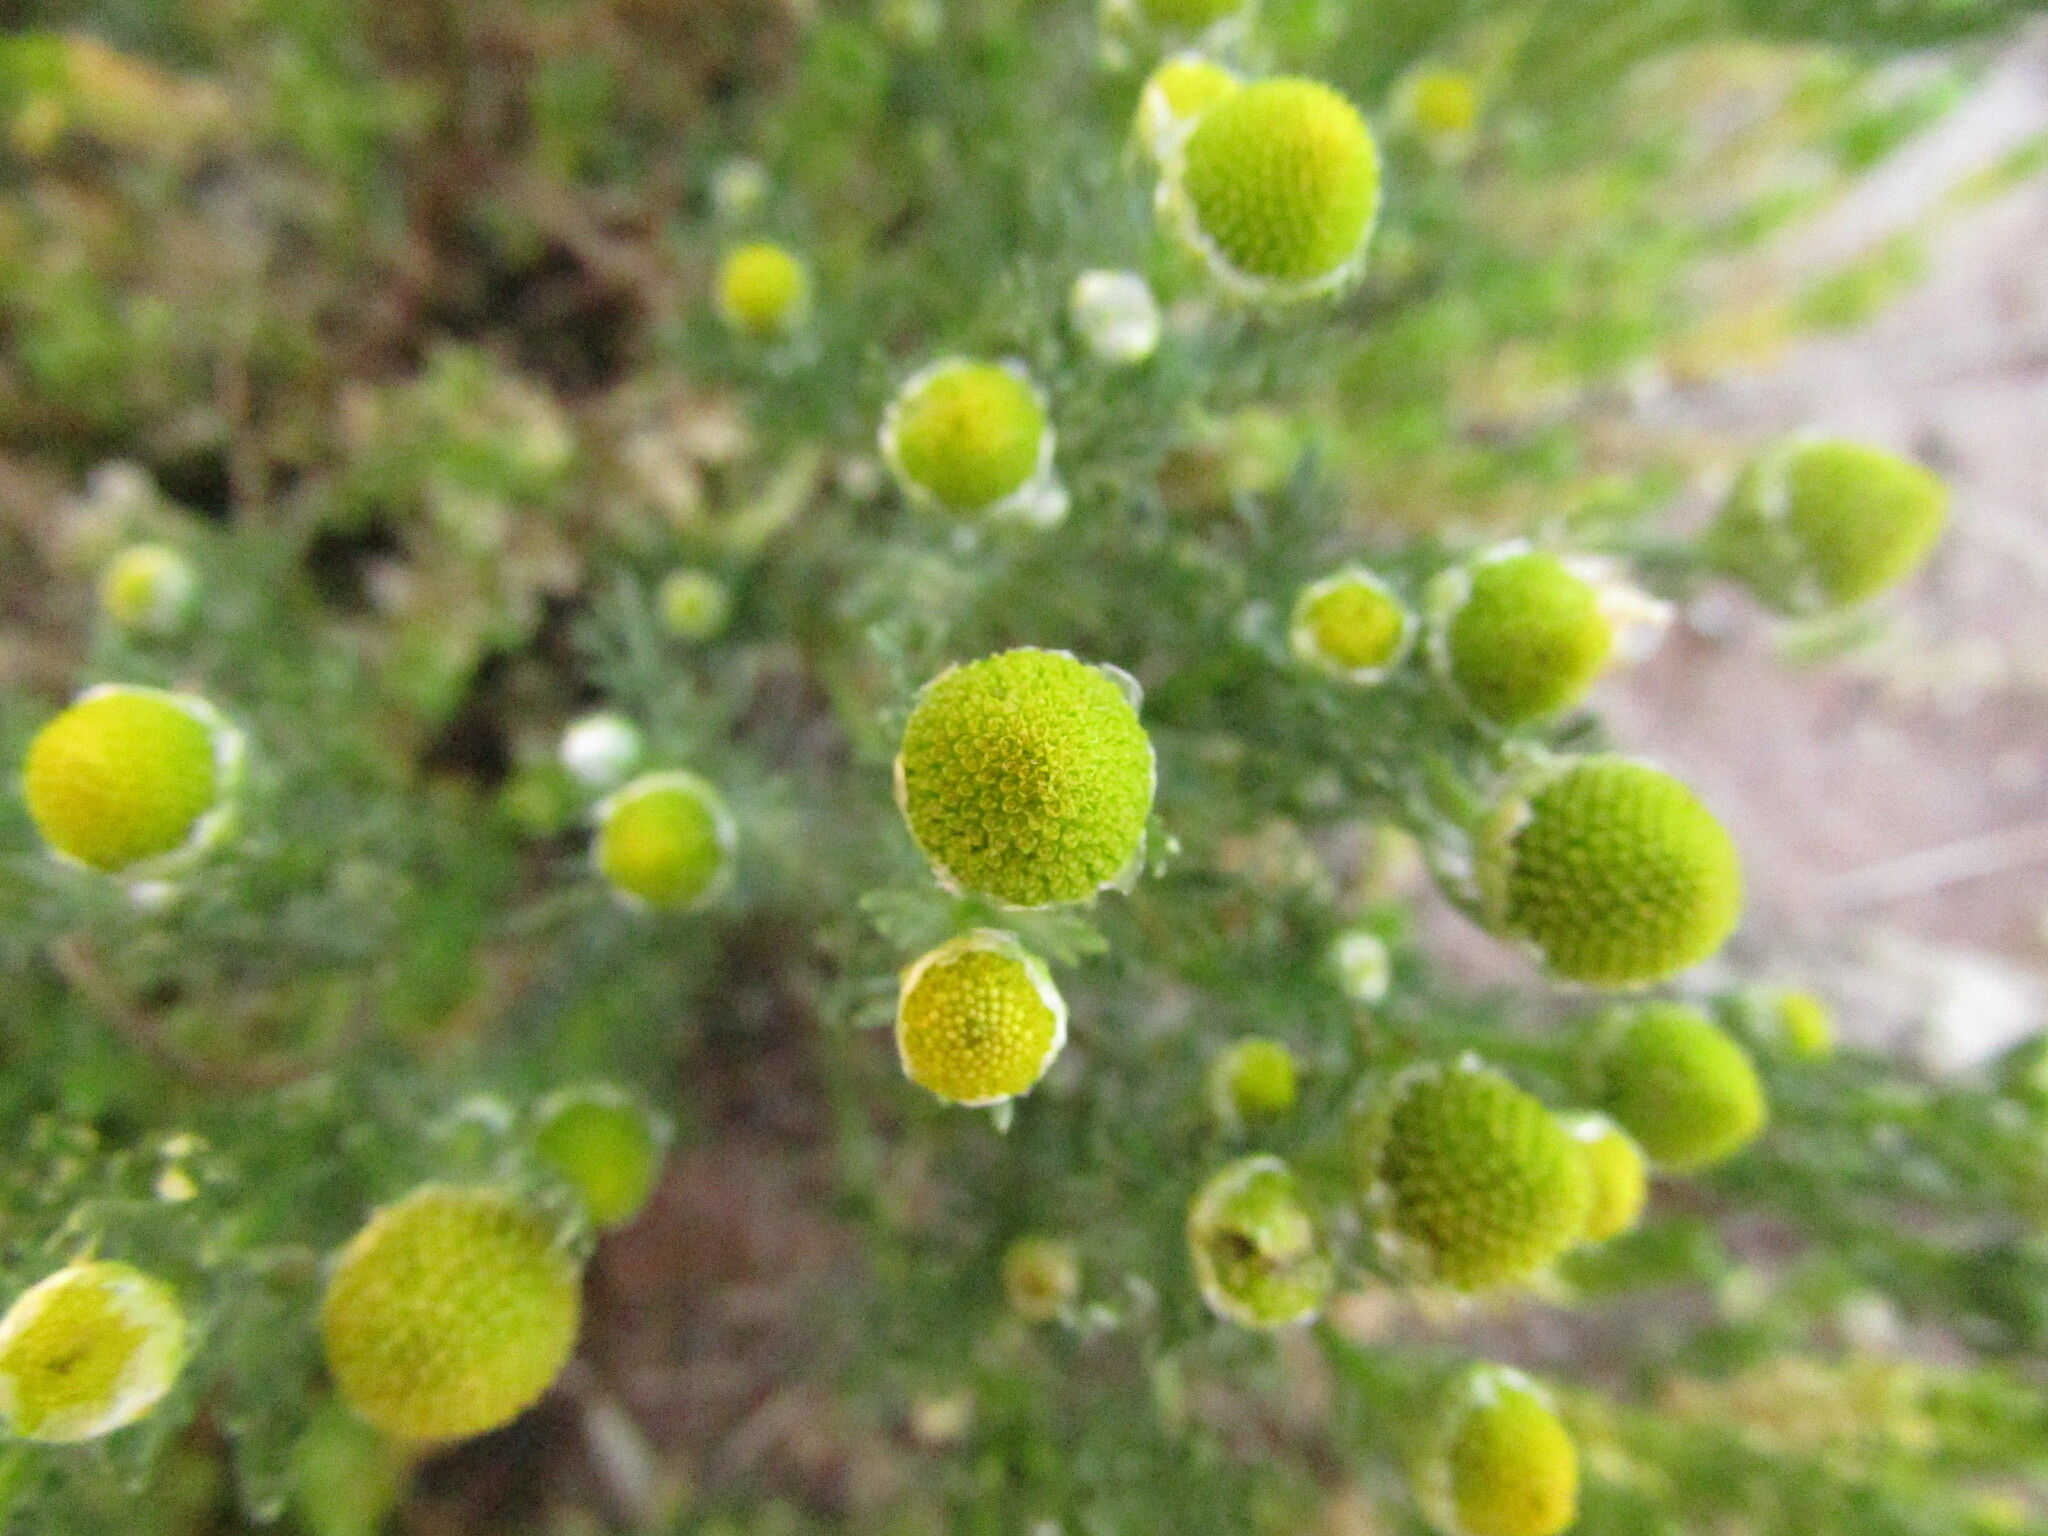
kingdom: Plantae
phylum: Tracheophyta
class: Magnoliopsida
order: Asterales
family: Asteraceae
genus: Matricaria
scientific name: Matricaria discoidea
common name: Disc mayweed
